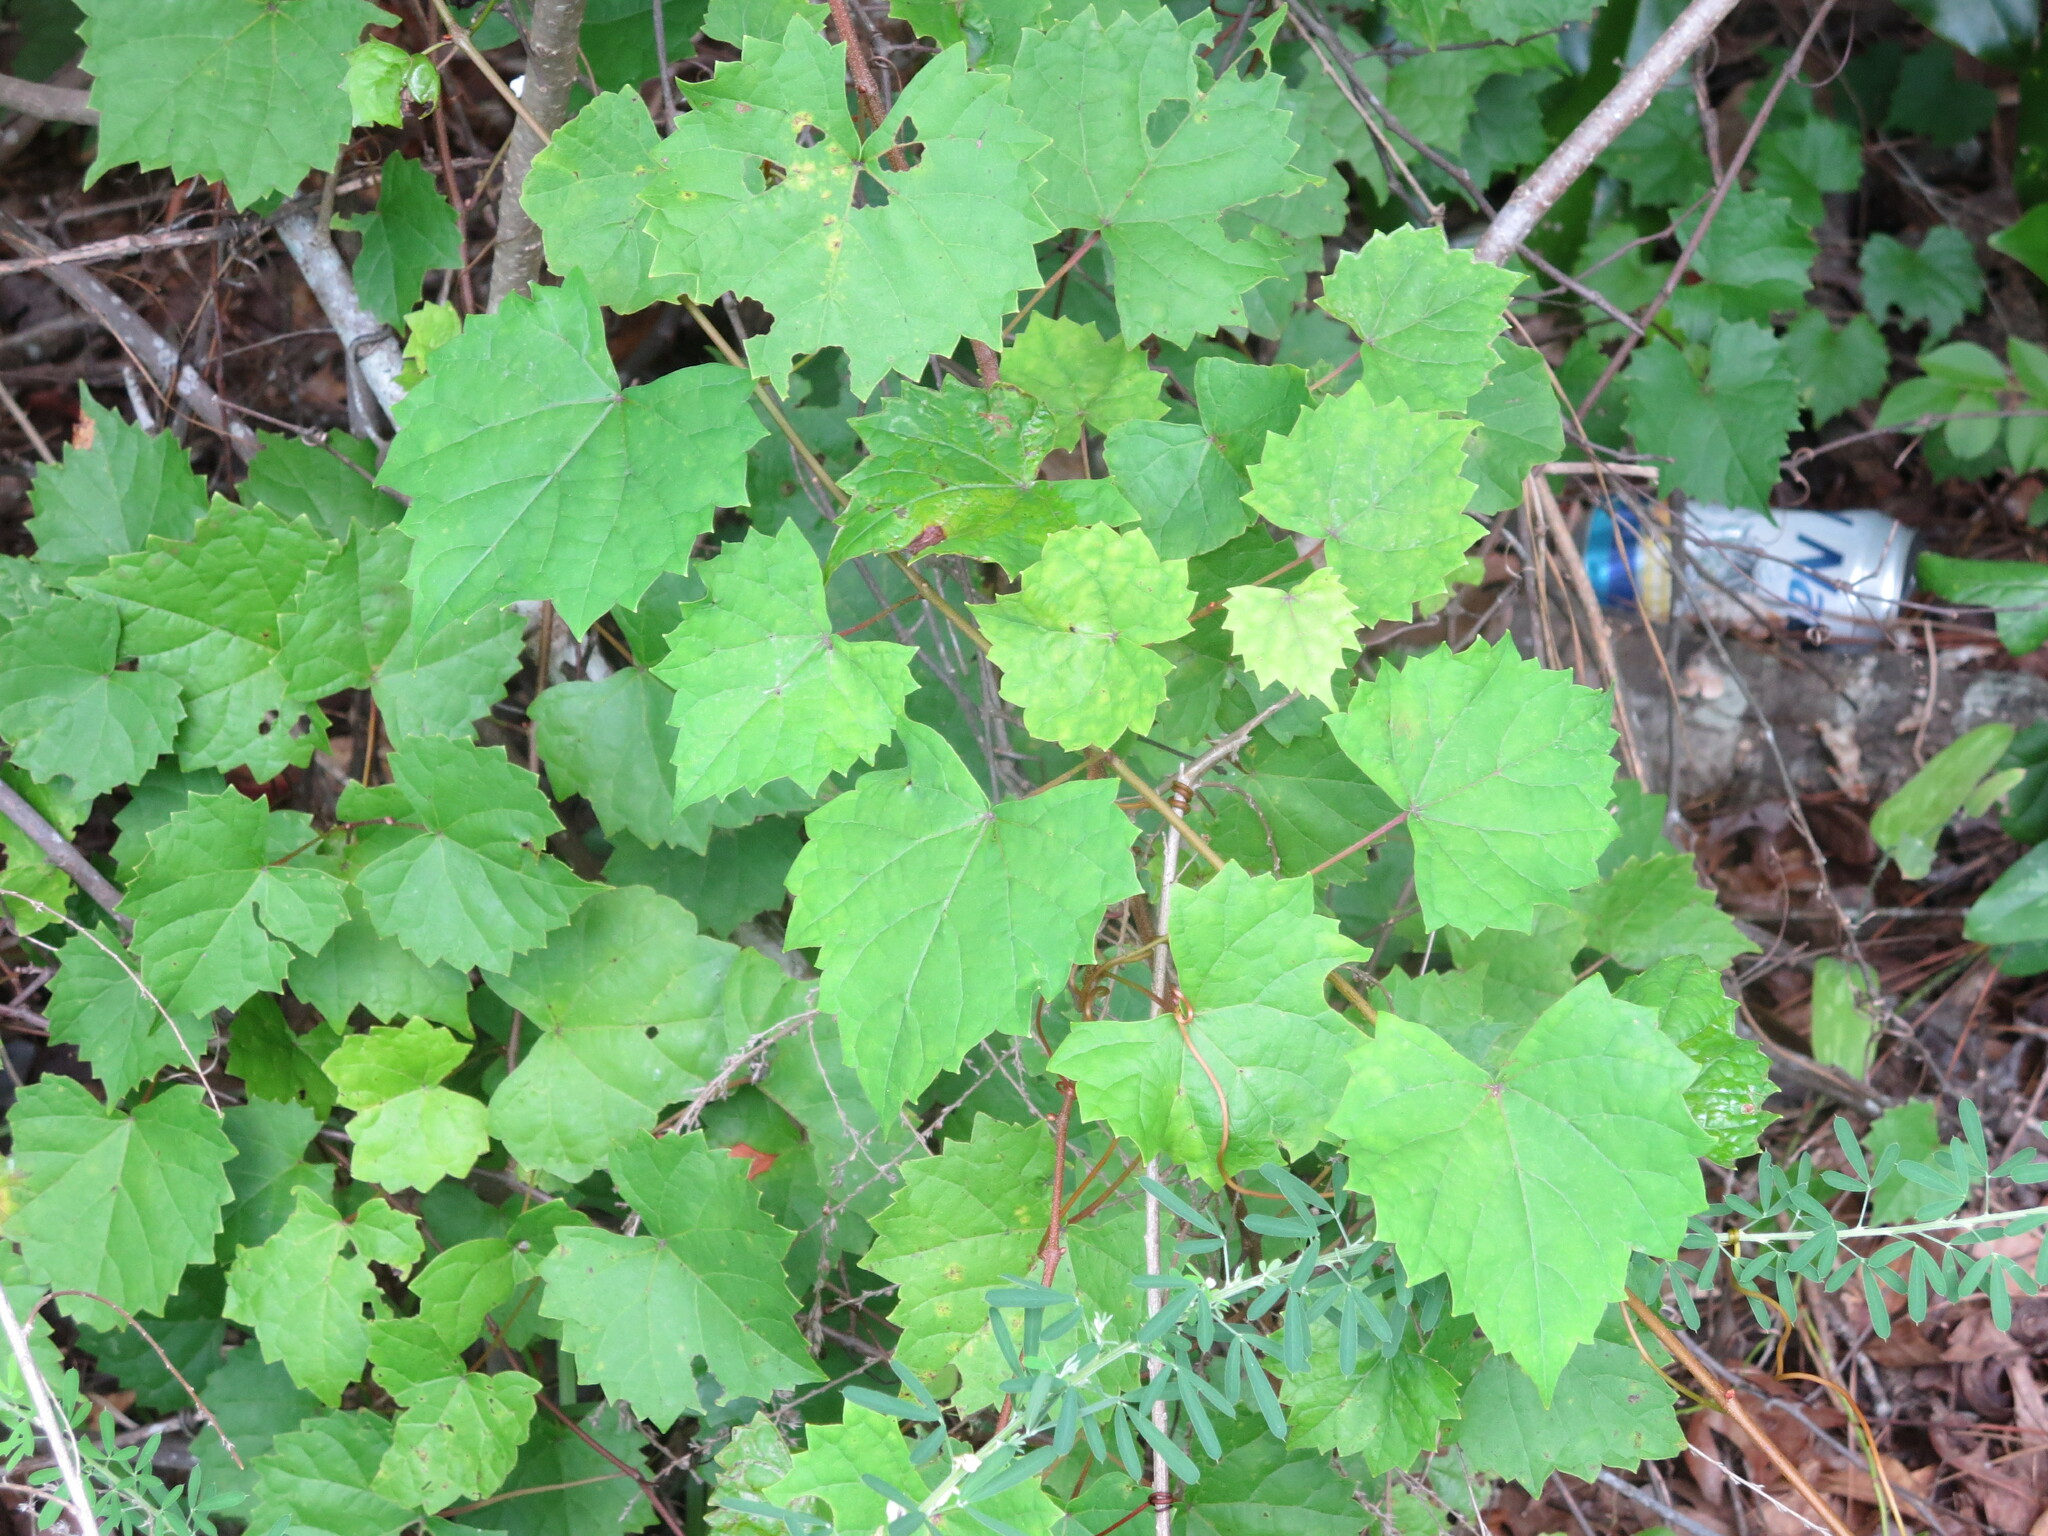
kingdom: Plantae
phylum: Tracheophyta
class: Magnoliopsida
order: Vitales
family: Vitaceae
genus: Vitis
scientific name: Vitis rotundifolia
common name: Muscadine grape
